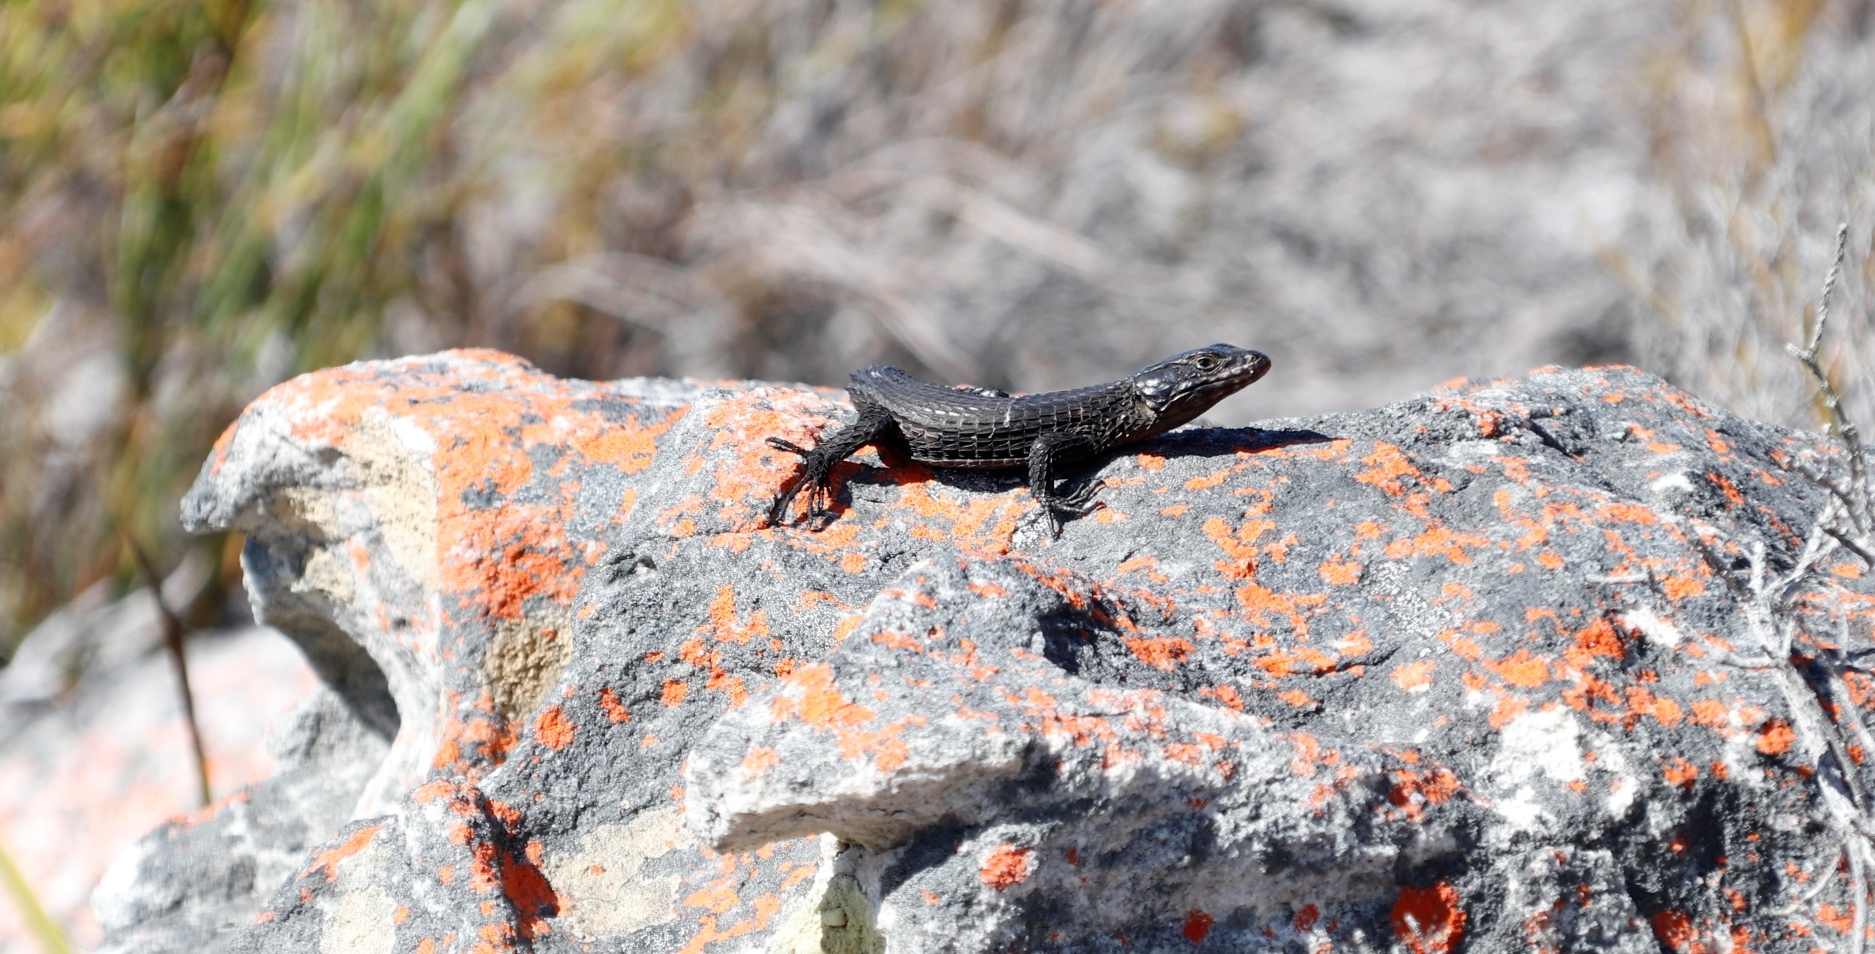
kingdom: Animalia
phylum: Chordata
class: Squamata
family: Cordylidae
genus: Cordylus
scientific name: Cordylus niger
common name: Black girdled lizard
